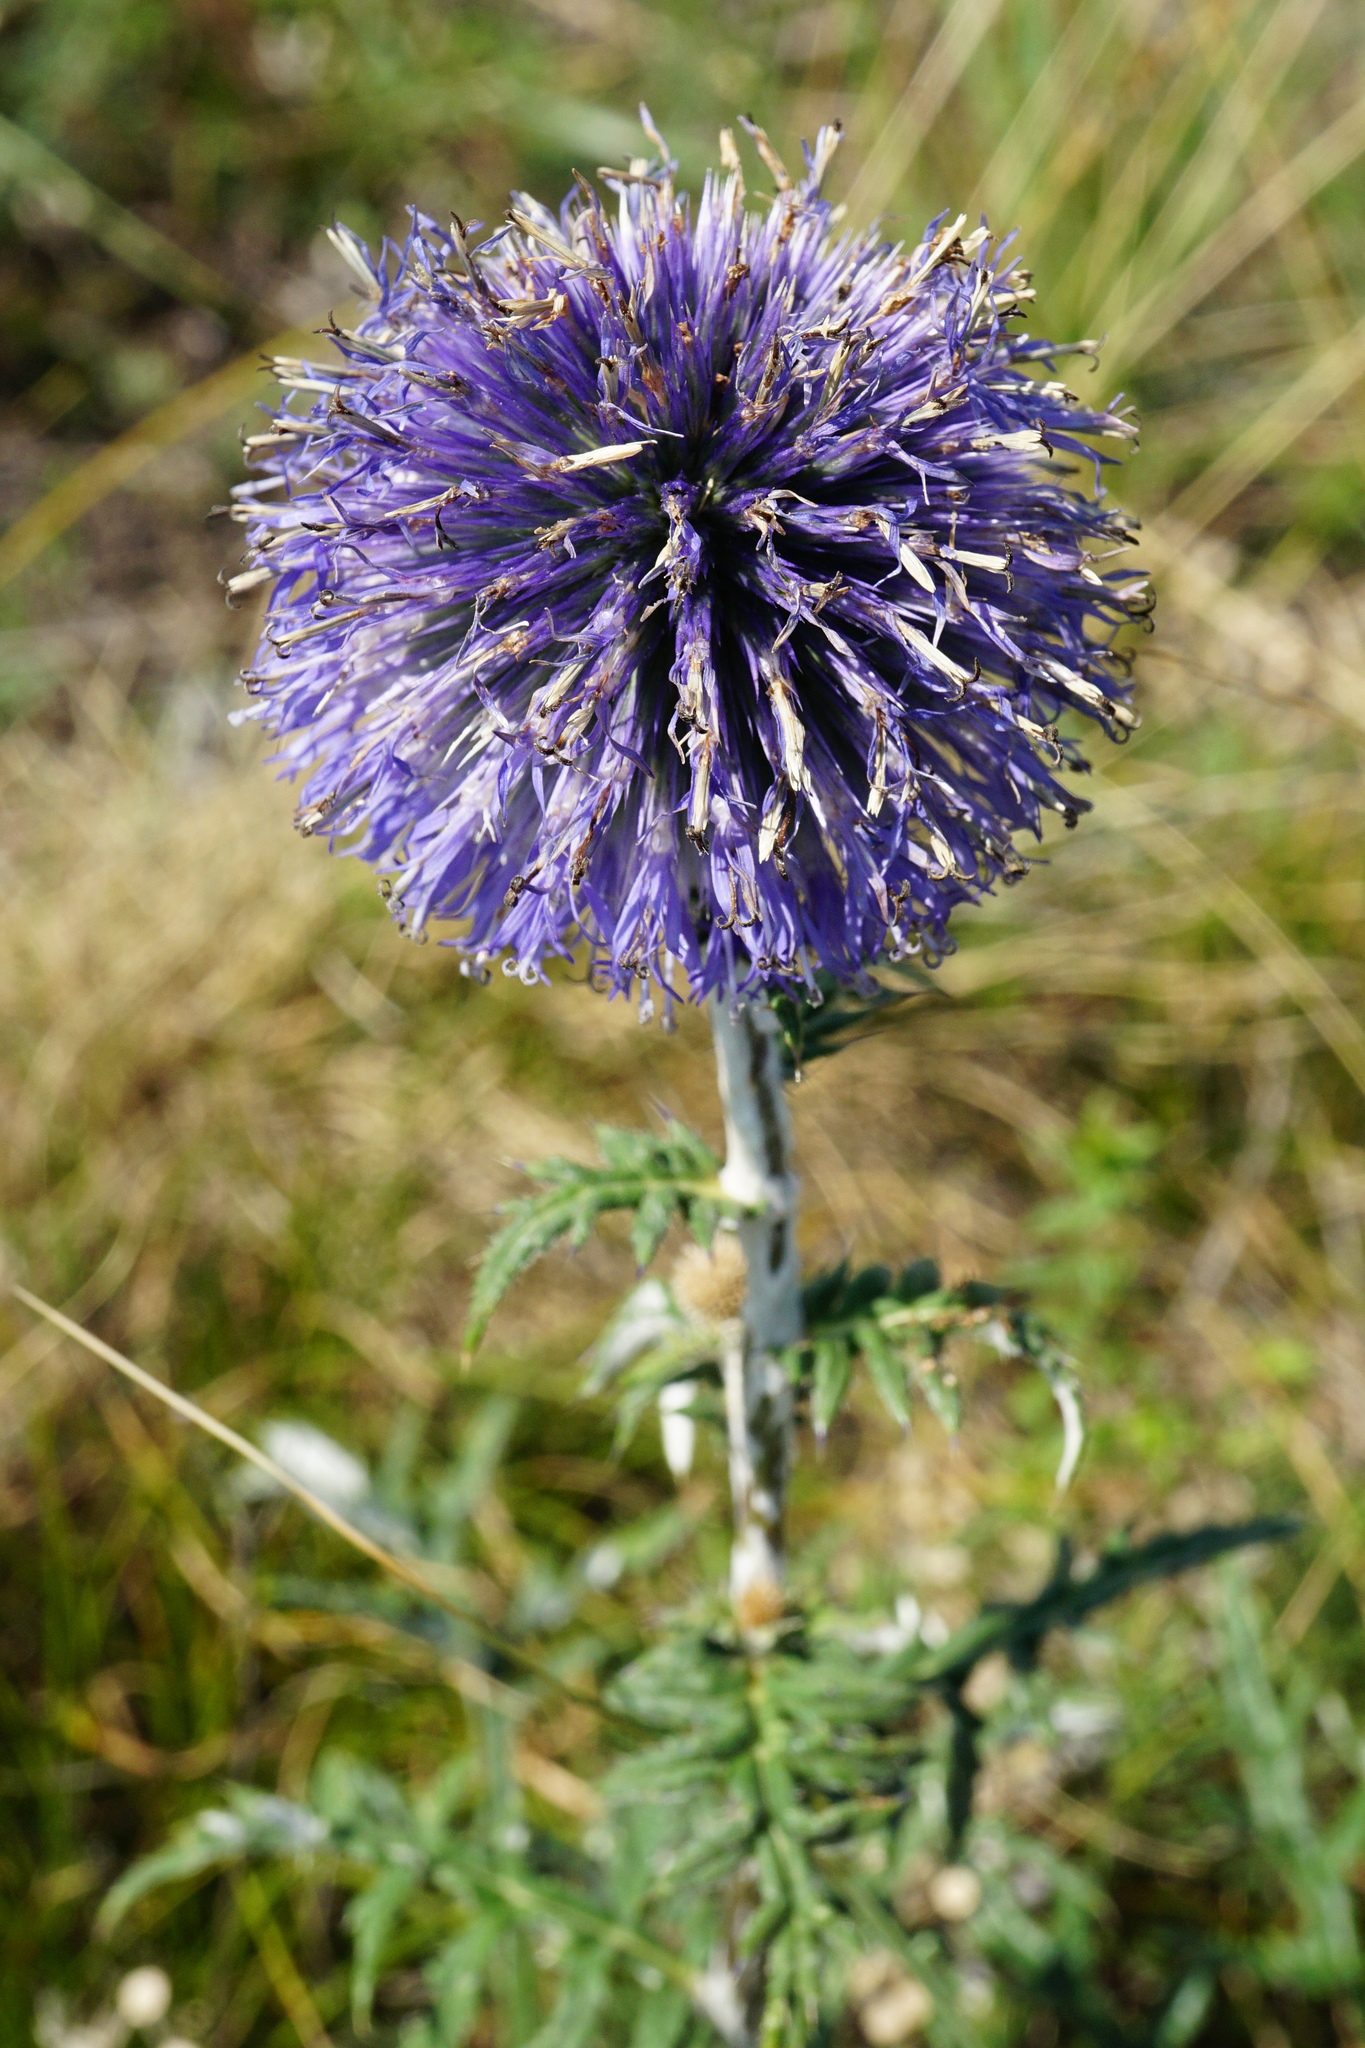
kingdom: Plantae
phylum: Tracheophyta
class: Magnoliopsida
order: Asterales
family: Asteraceae
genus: Echinops
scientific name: Echinops ritro
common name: Globe thistle
